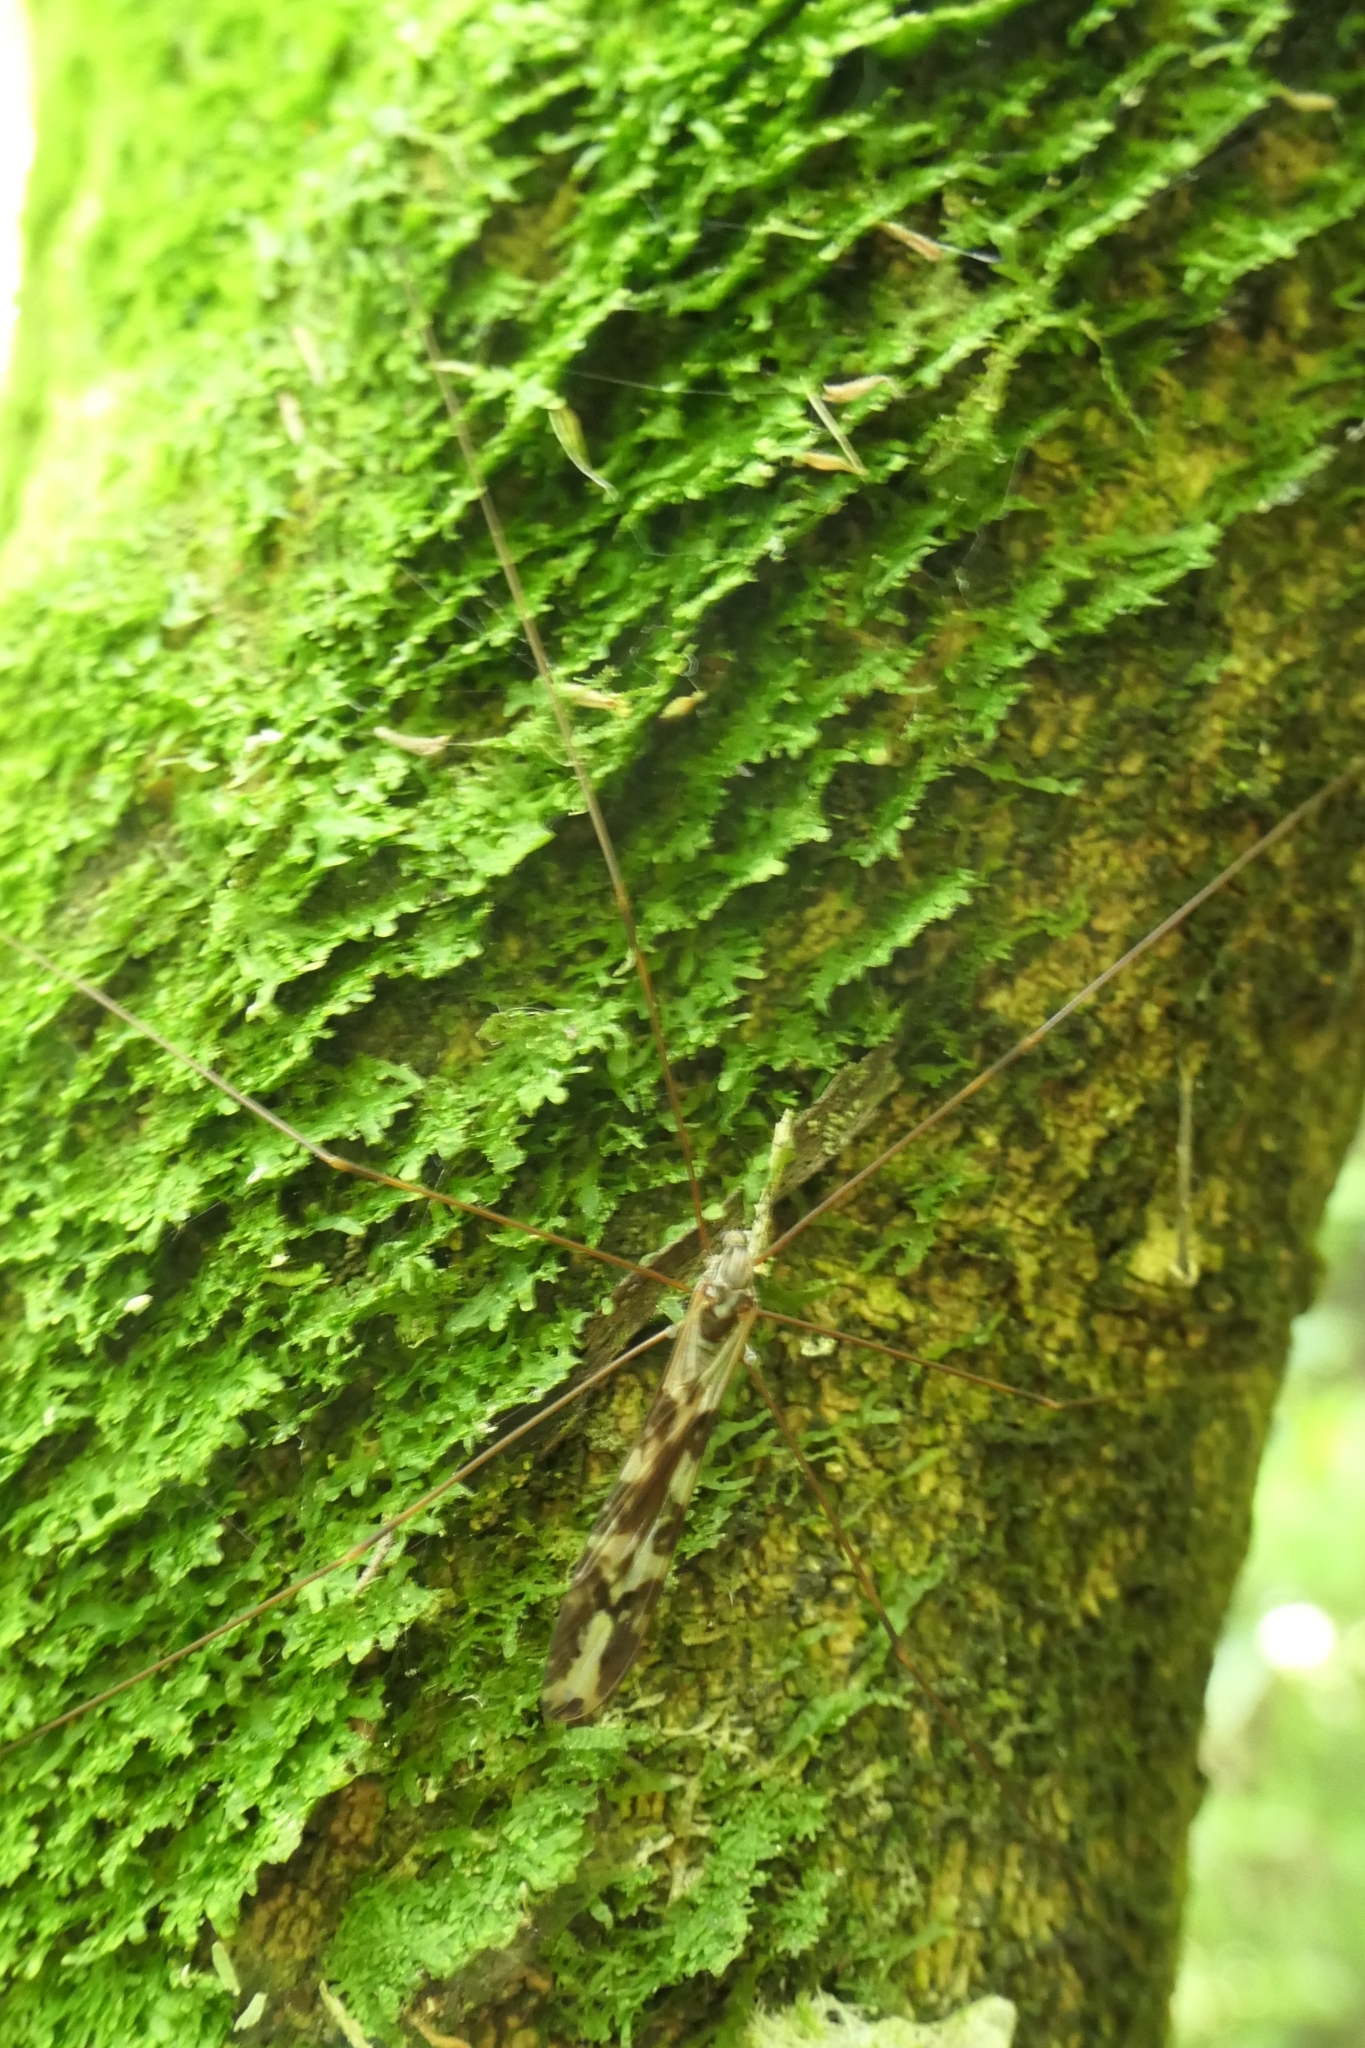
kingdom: Animalia
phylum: Arthropoda
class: Insecta
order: Diptera
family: Limoniidae
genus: Discobola
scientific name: Discobola dohrni
